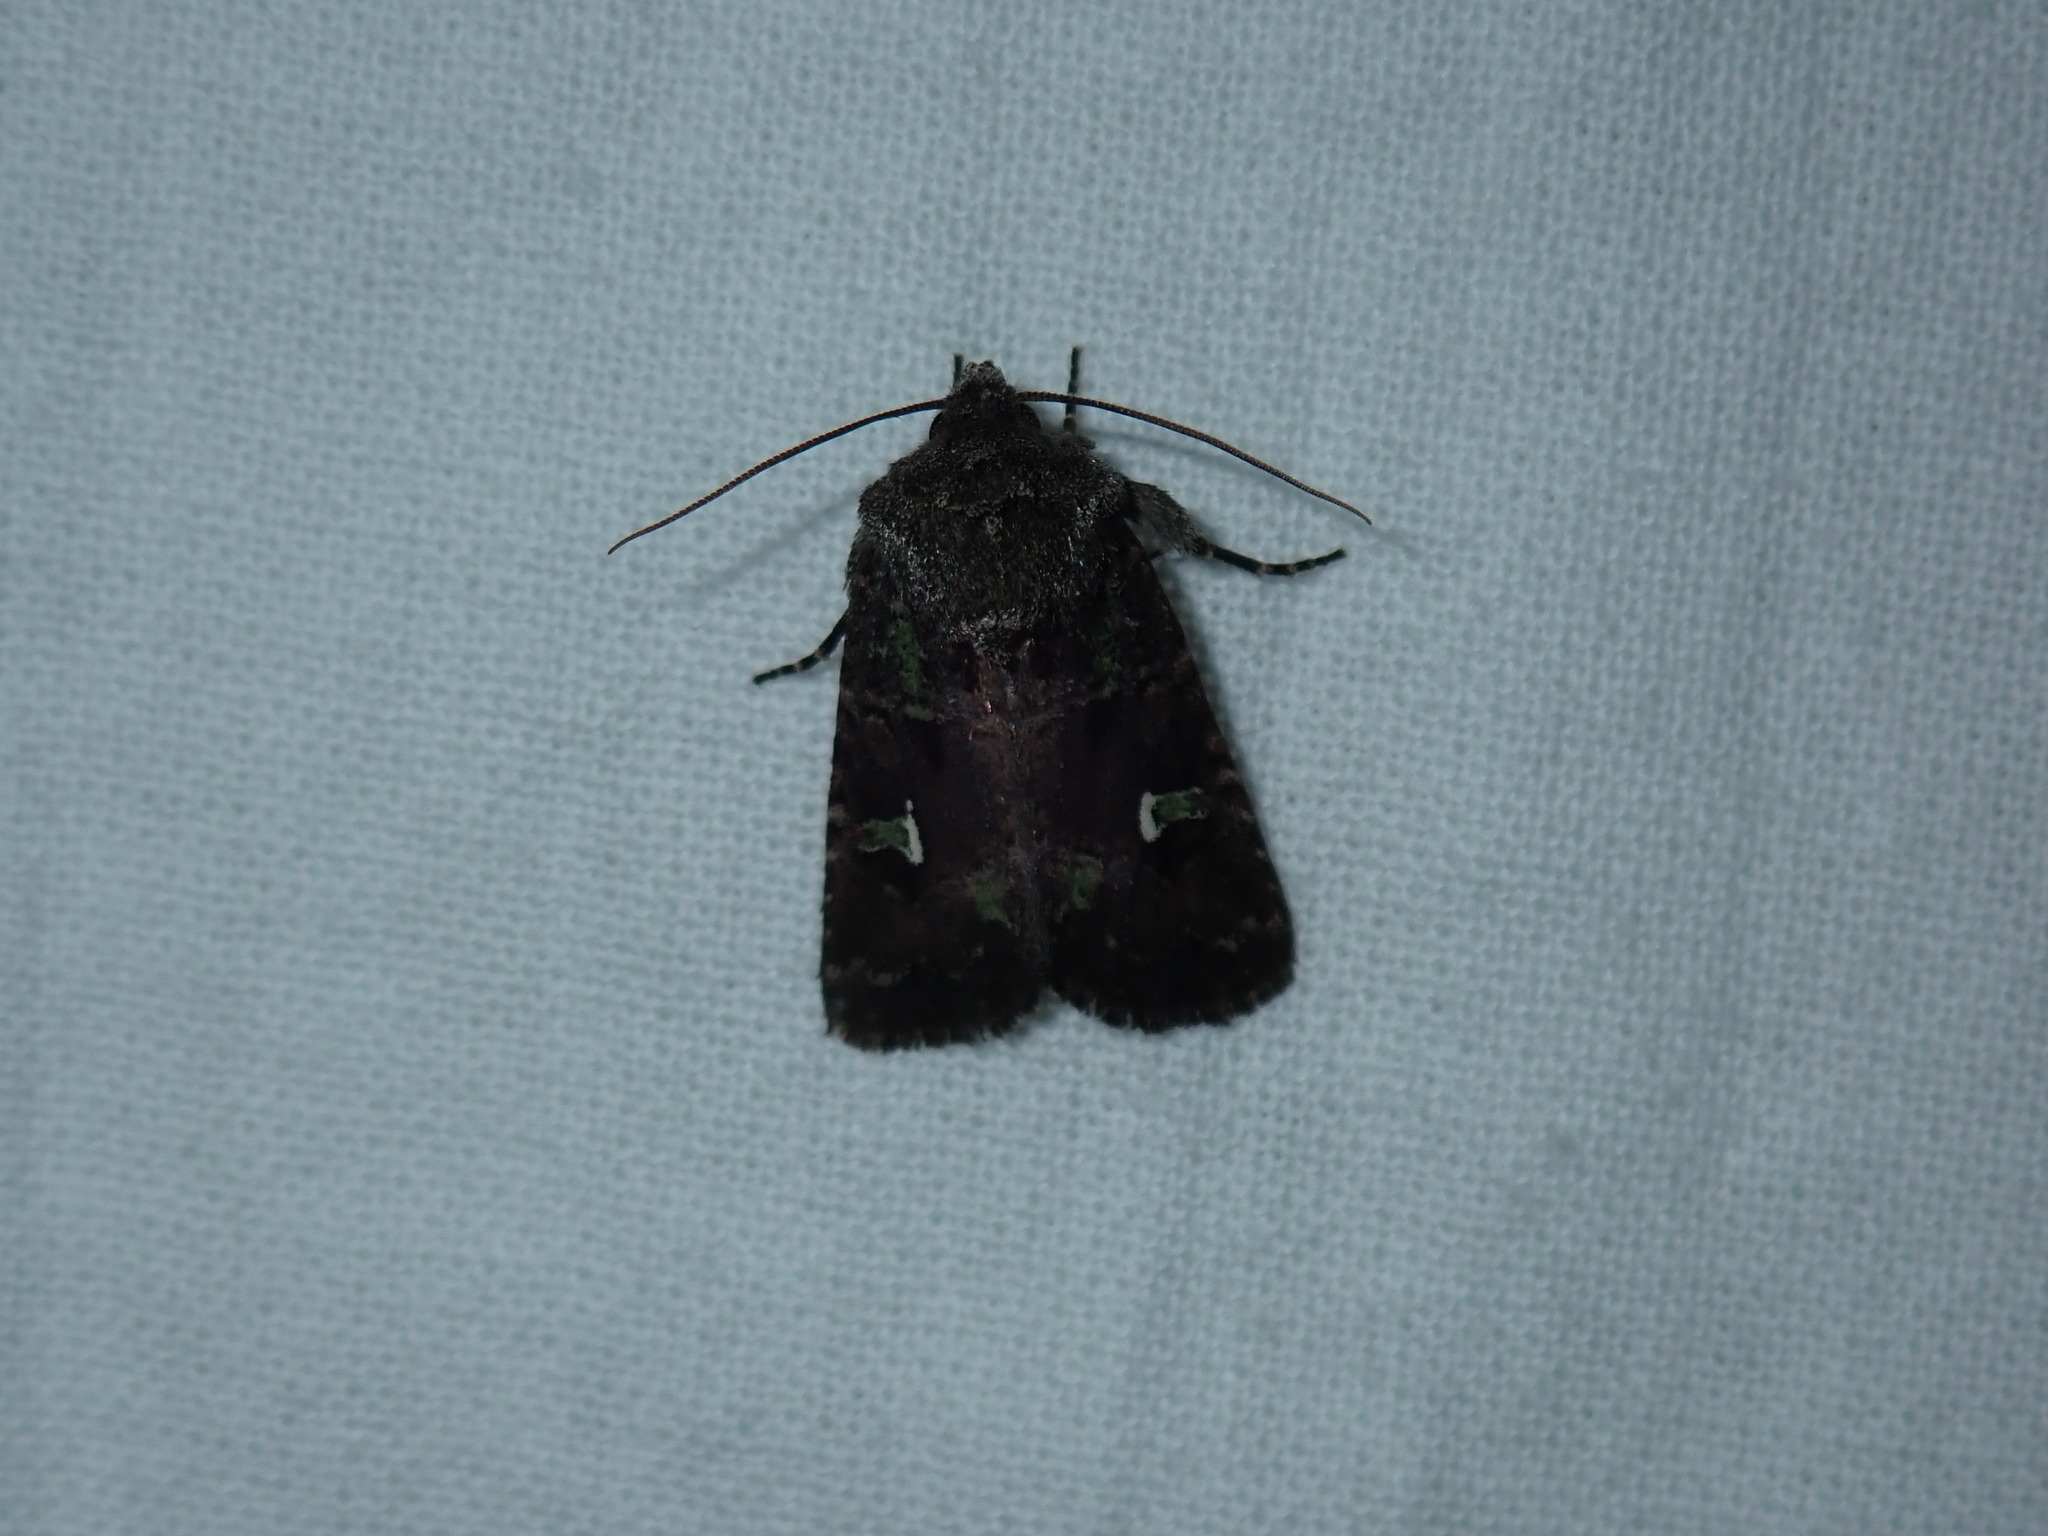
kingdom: Animalia
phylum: Arthropoda
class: Insecta
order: Lepidoptera
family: Noctuidae
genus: Lacinipolia
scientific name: Lacinipolia renigera
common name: Kidney-spotted minor
